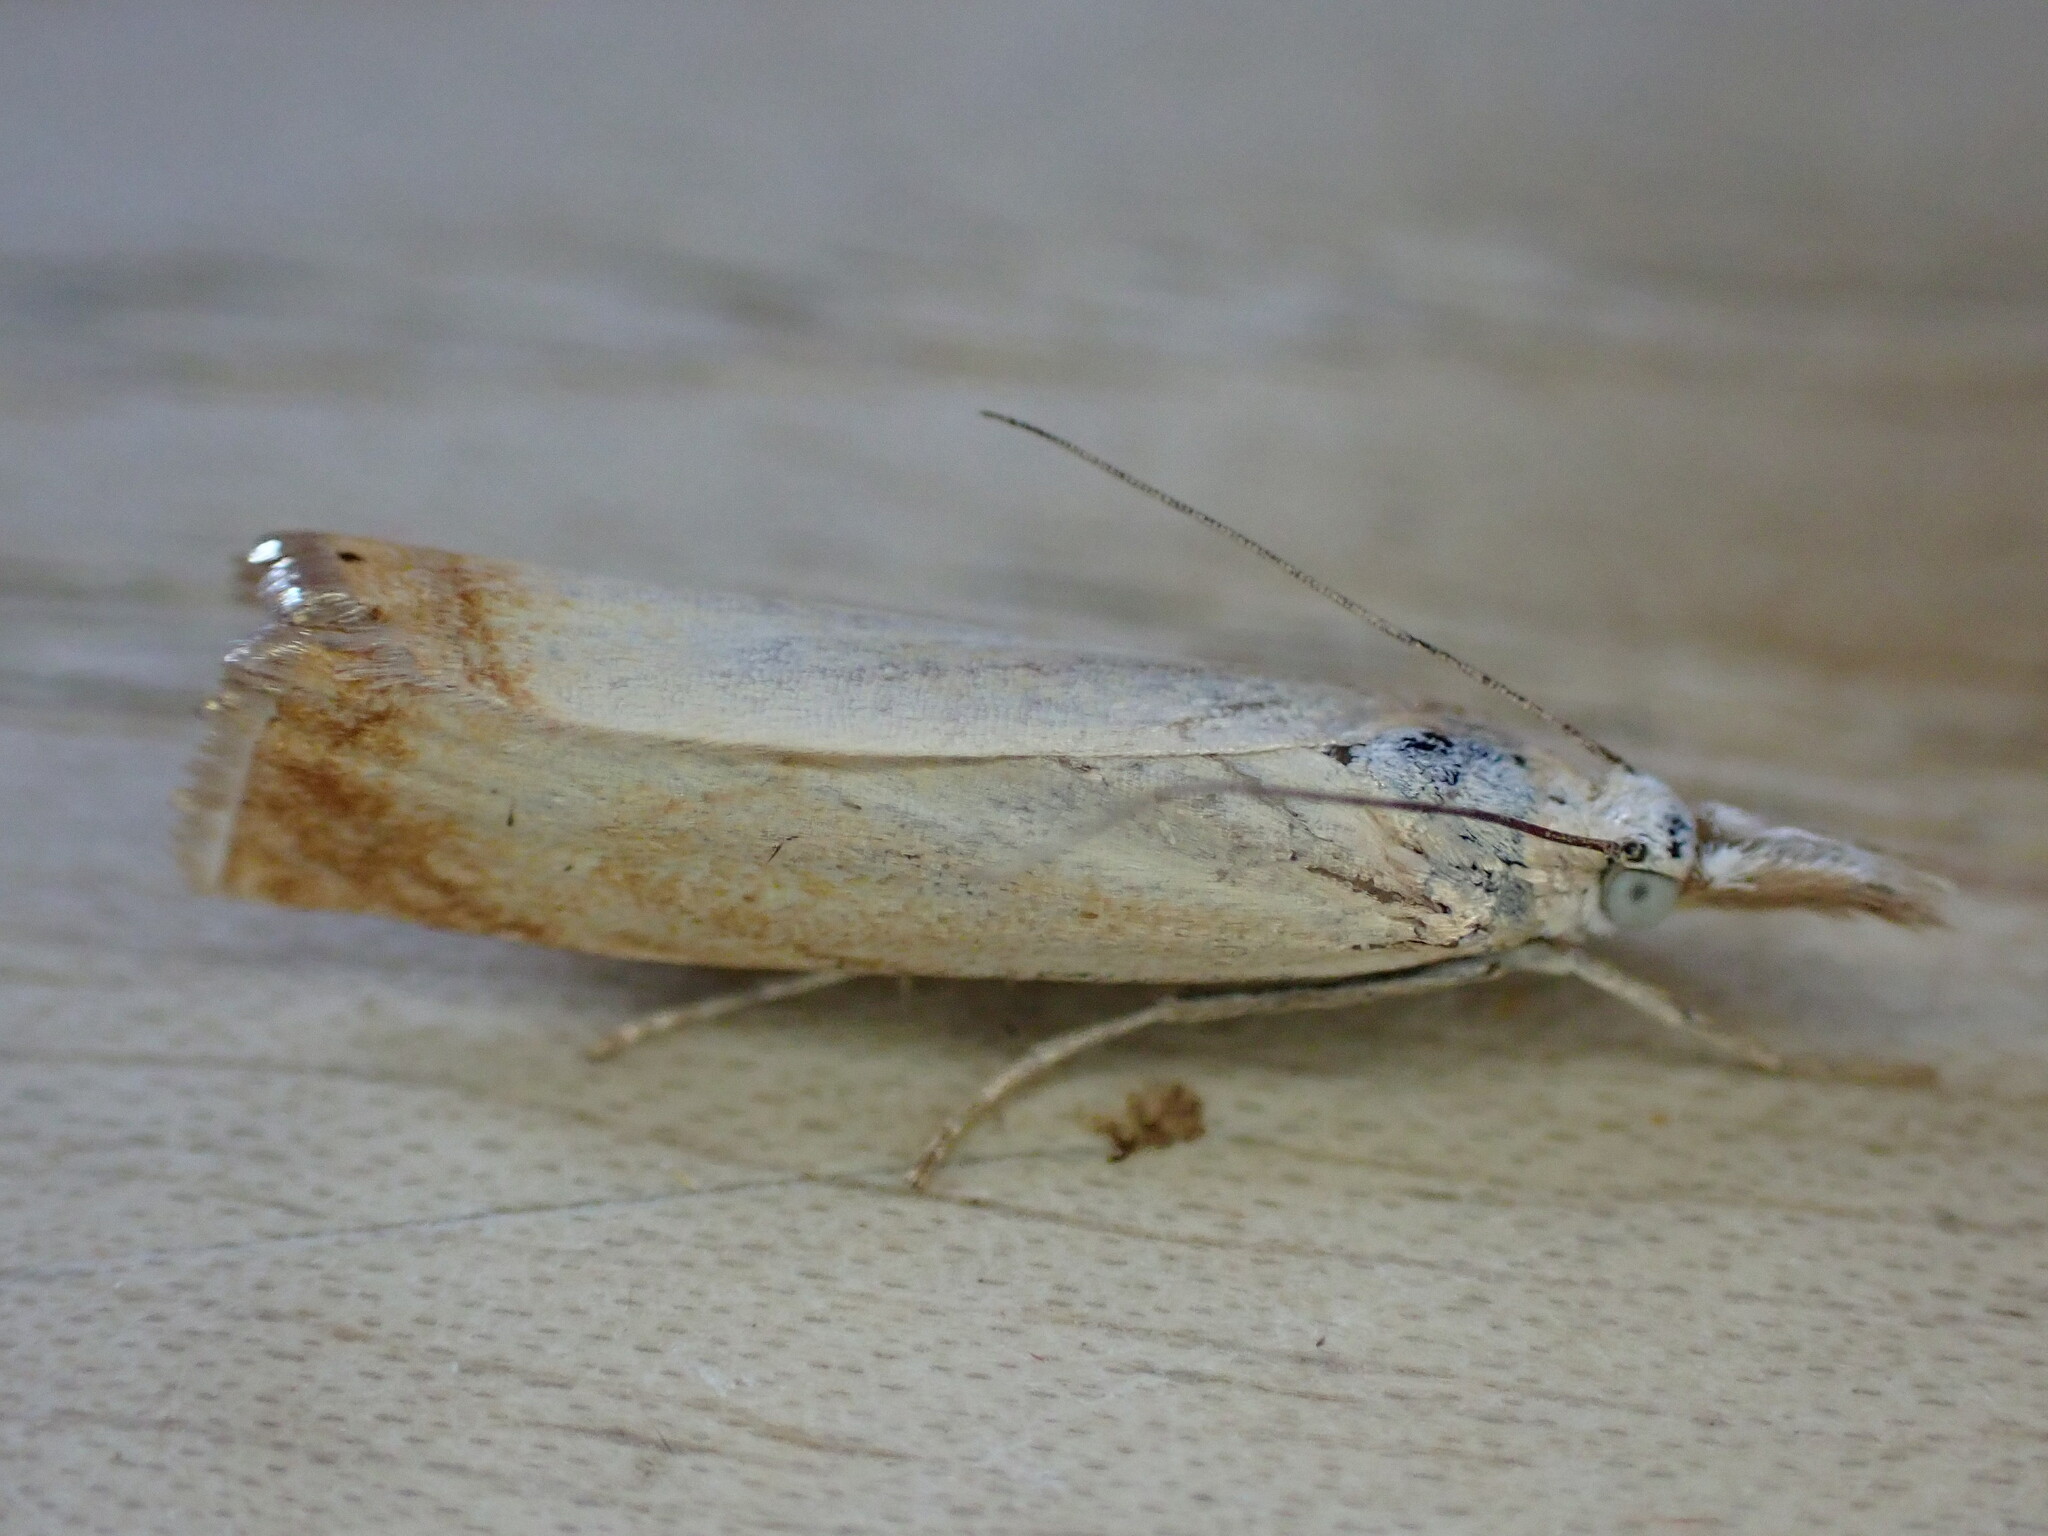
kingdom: Animalia
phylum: Arthropoda
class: Insecta
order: Lepidoptera
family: Crambidae
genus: Chrysoteuchia
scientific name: Chrysoteuchia culmella
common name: Garden grass-veneer
